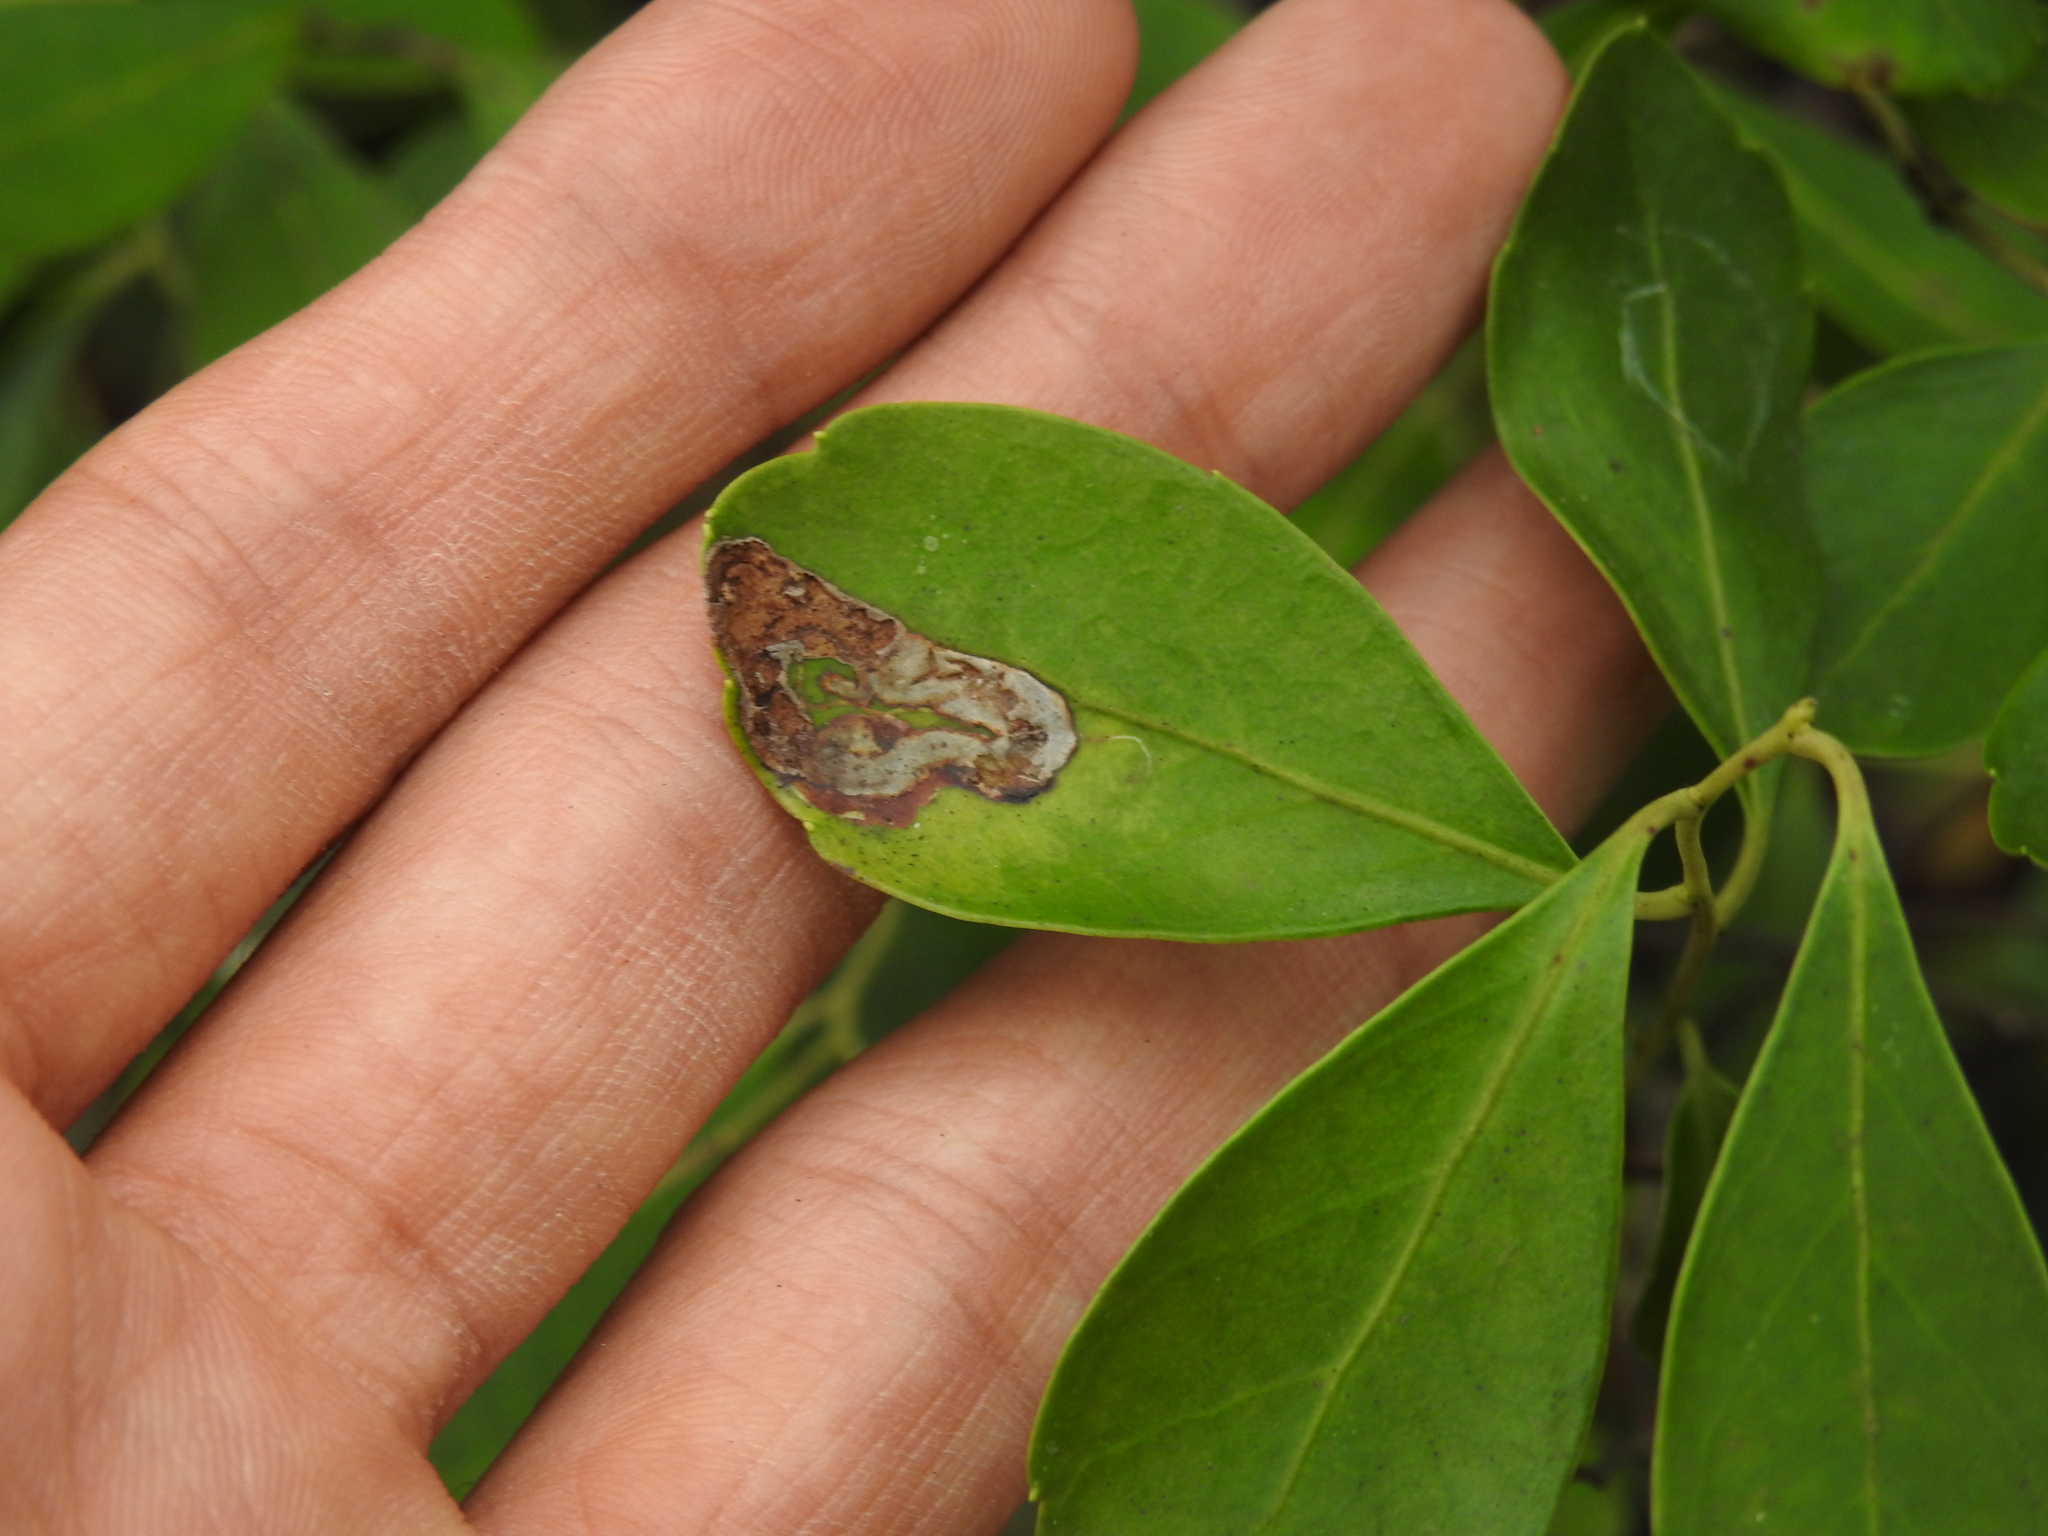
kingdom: Animalia
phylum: Arthropoda
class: Insecta
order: Diptera
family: Agromyzidae
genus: Phytomyza
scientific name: Phytomyza glabricola
